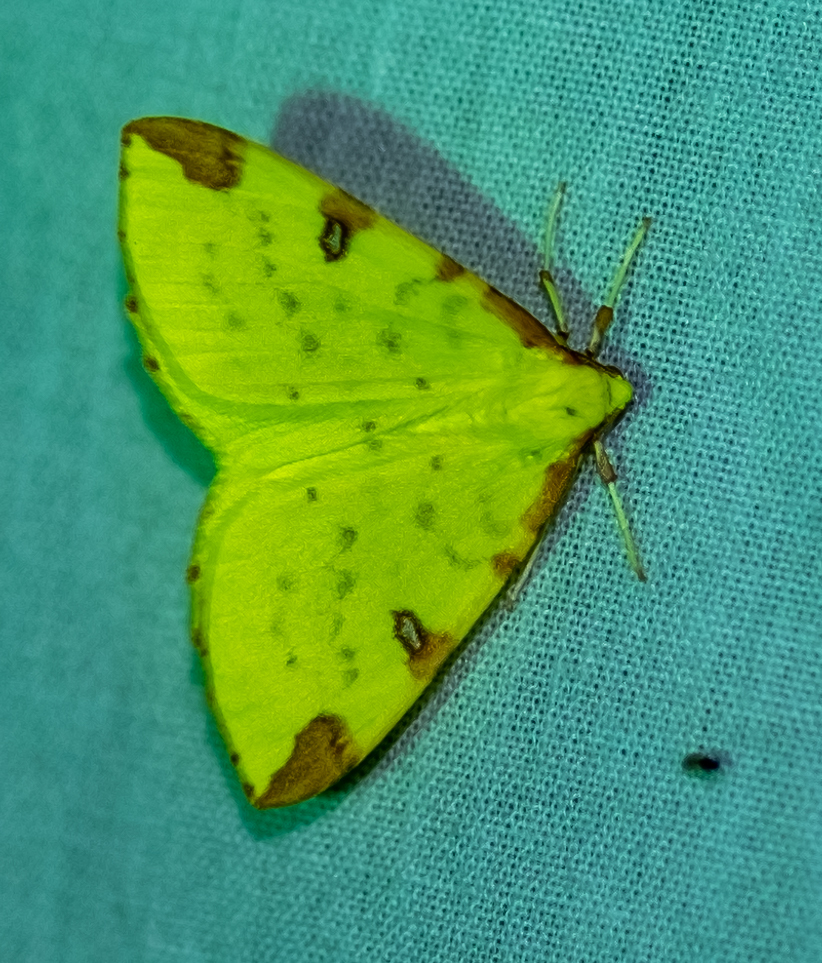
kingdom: Animalia
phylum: Arthropoda
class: Insecta
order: Lepidoptera
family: Geometridae
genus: Opisthograptis
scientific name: Opisthograptis luteolata
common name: Brimstone moth
